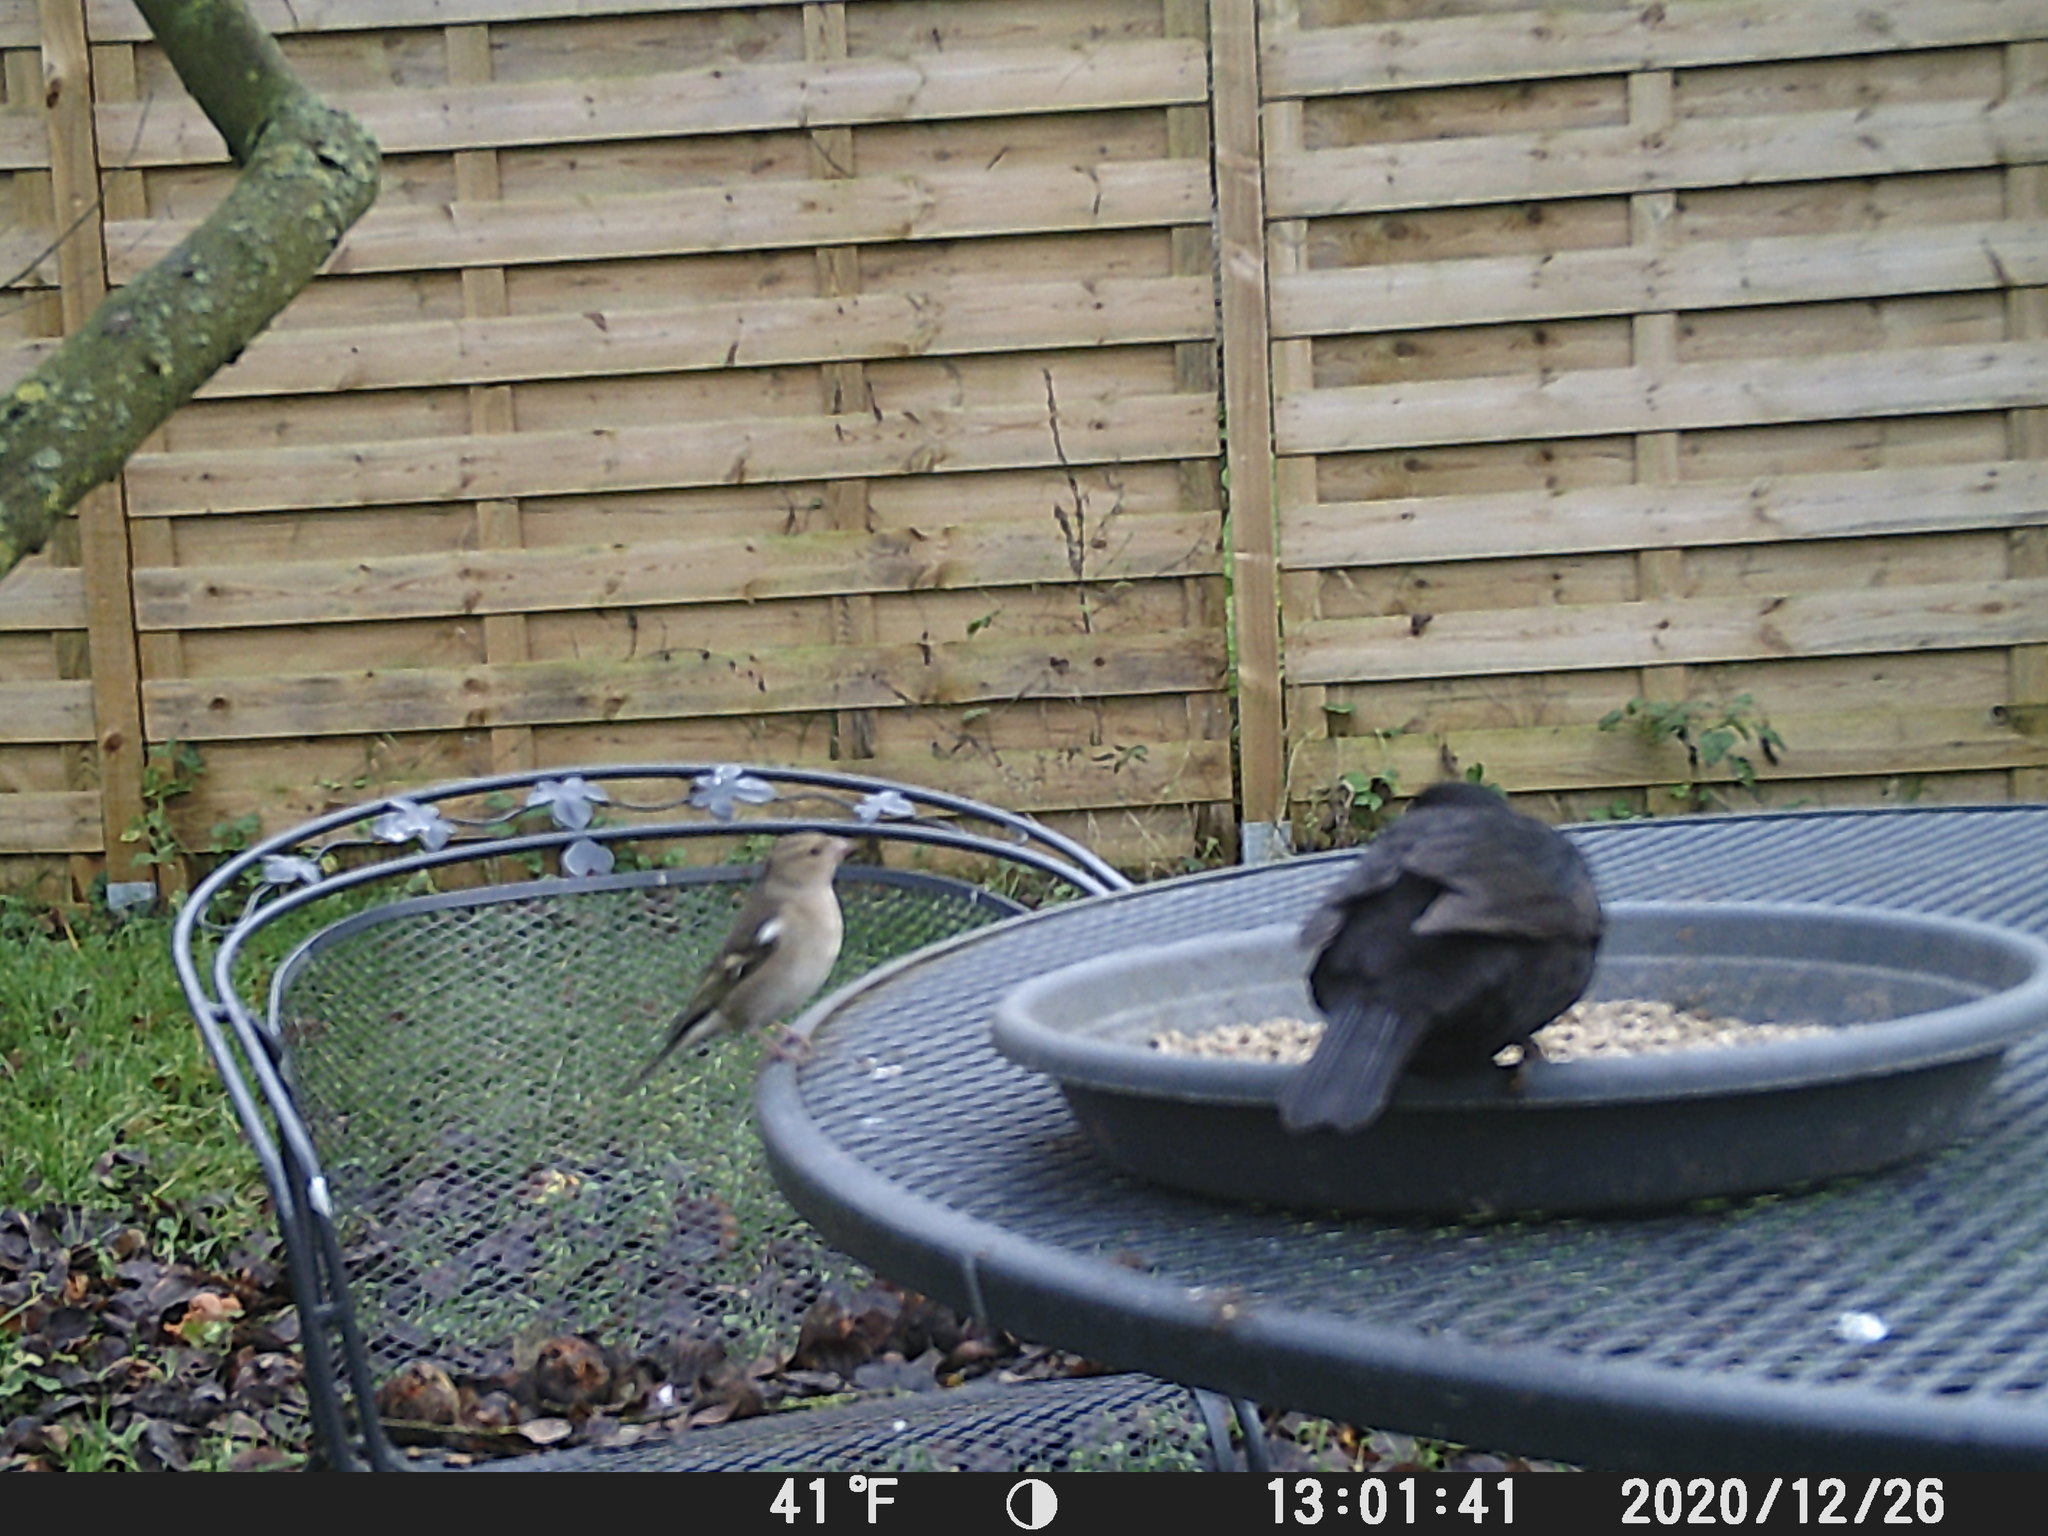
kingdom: Animalia
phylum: Chordata
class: Aves
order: Passeriformes
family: Fringillidae
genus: Fringilla
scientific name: Fringilla coelebs
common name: Common chaffinch
